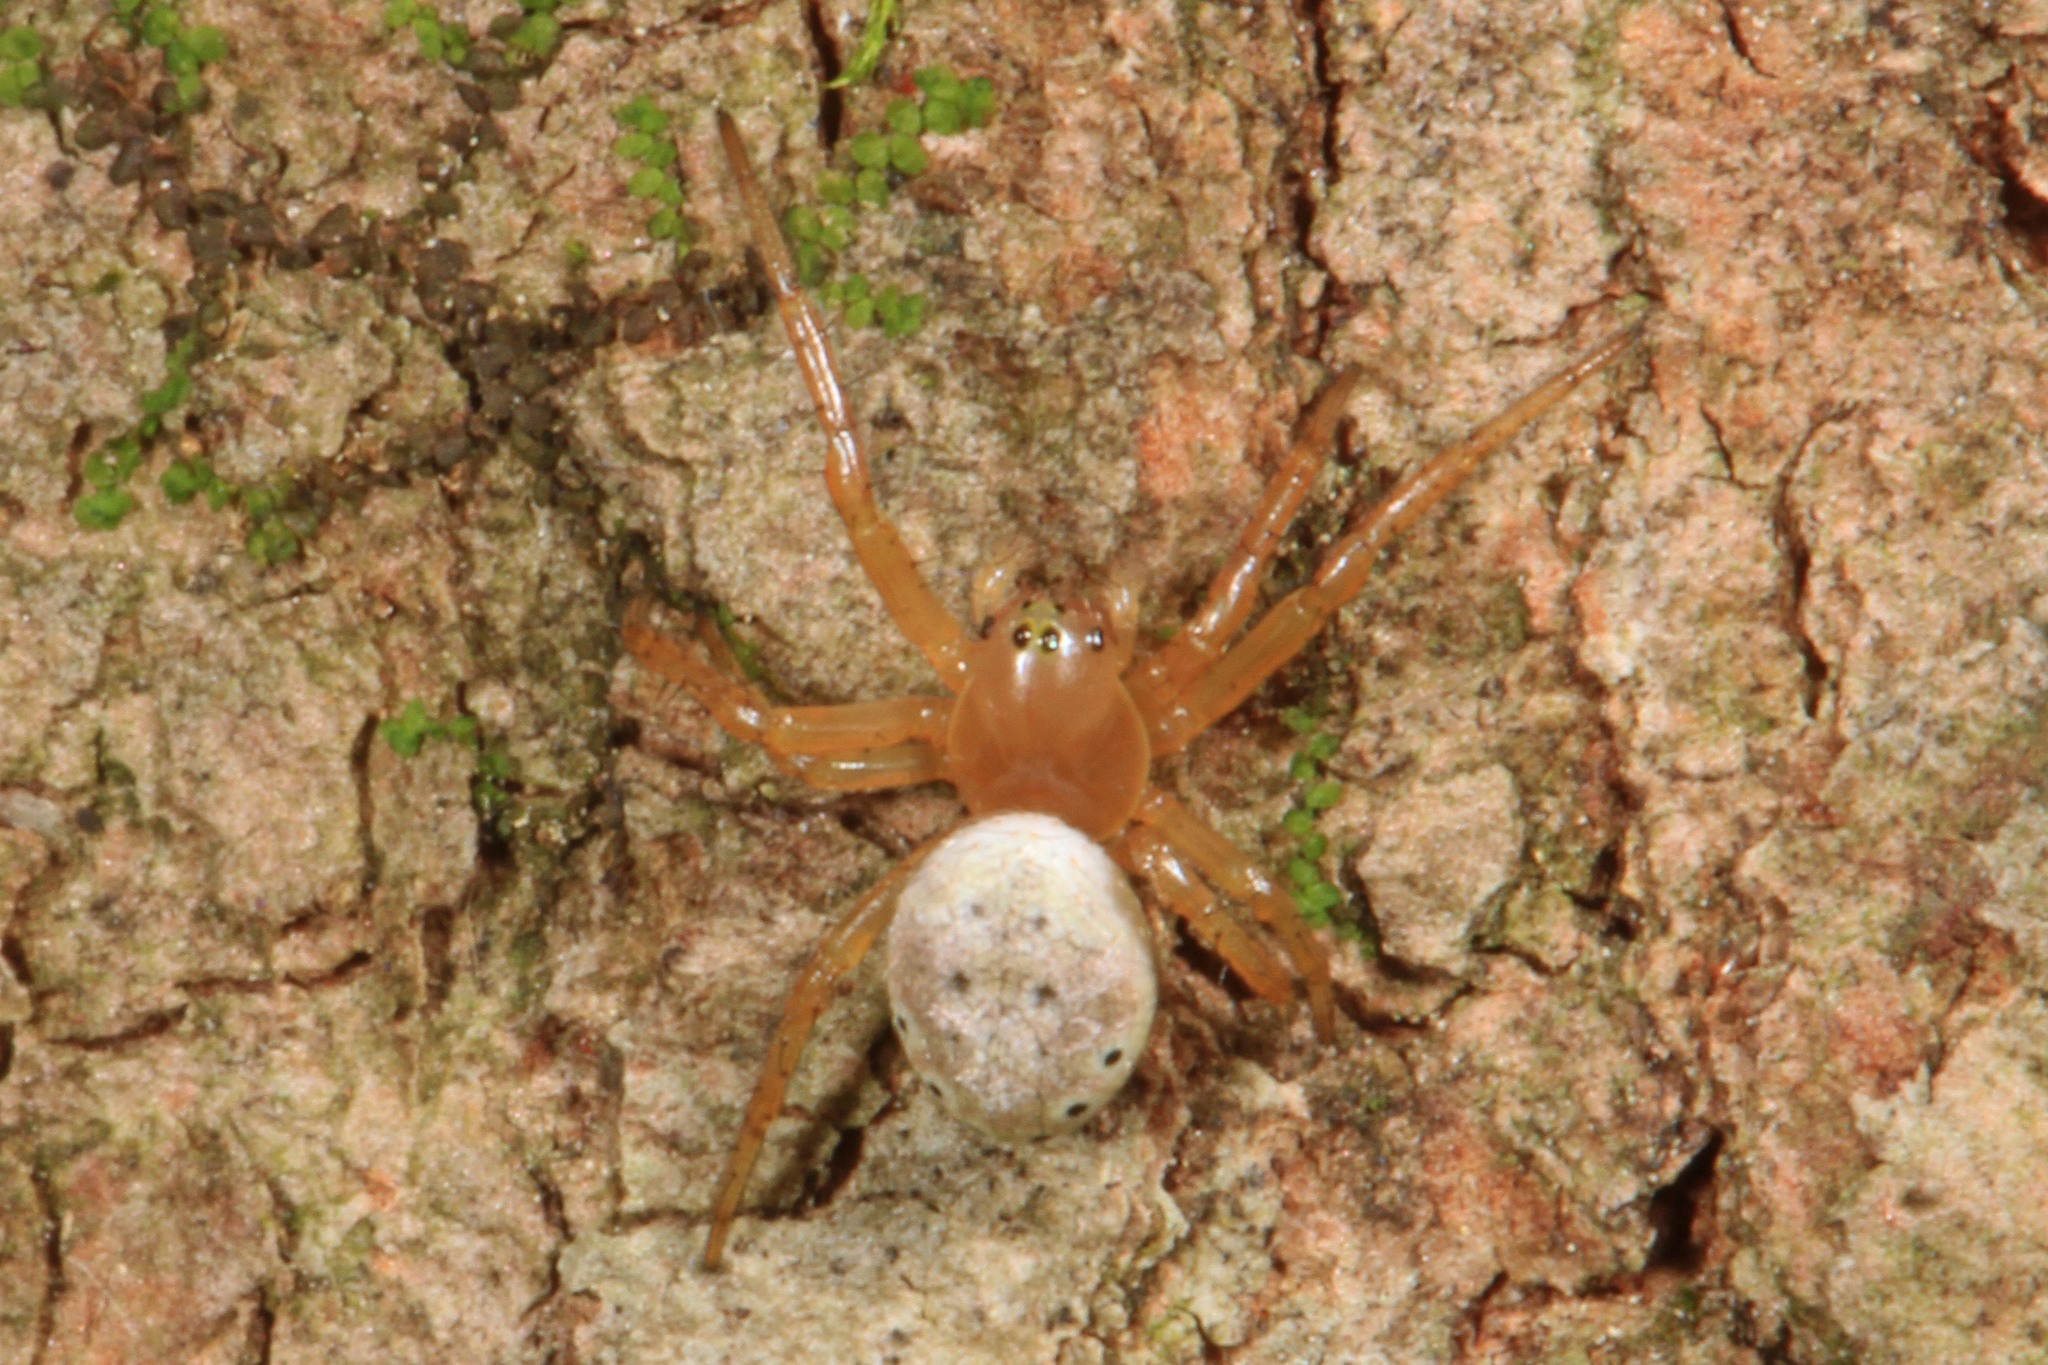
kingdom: Animalia
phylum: Arthropoda
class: Arachnida
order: Araneae
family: Araneidae
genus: Araniella
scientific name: Araniella displicata
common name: Sixspotted orb weaver
